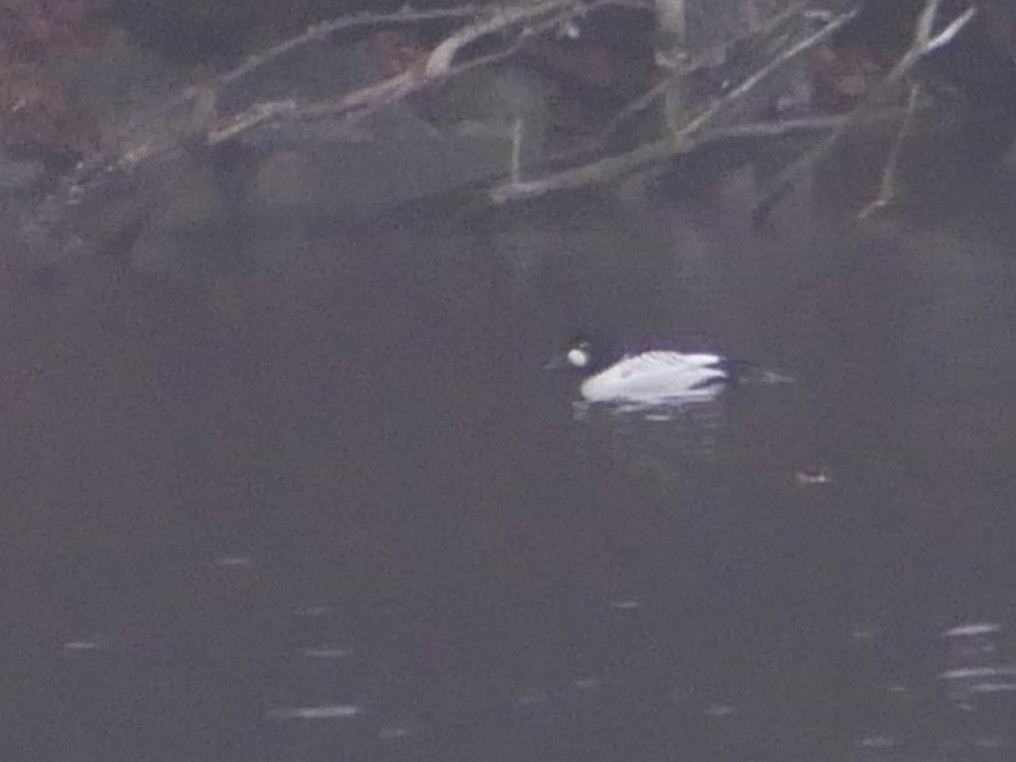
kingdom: Animalia
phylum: Chordata
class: Aves
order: Anseriformes
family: Anatidae
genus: Bucephala
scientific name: Bucephala clangula
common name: Common goldeneye
